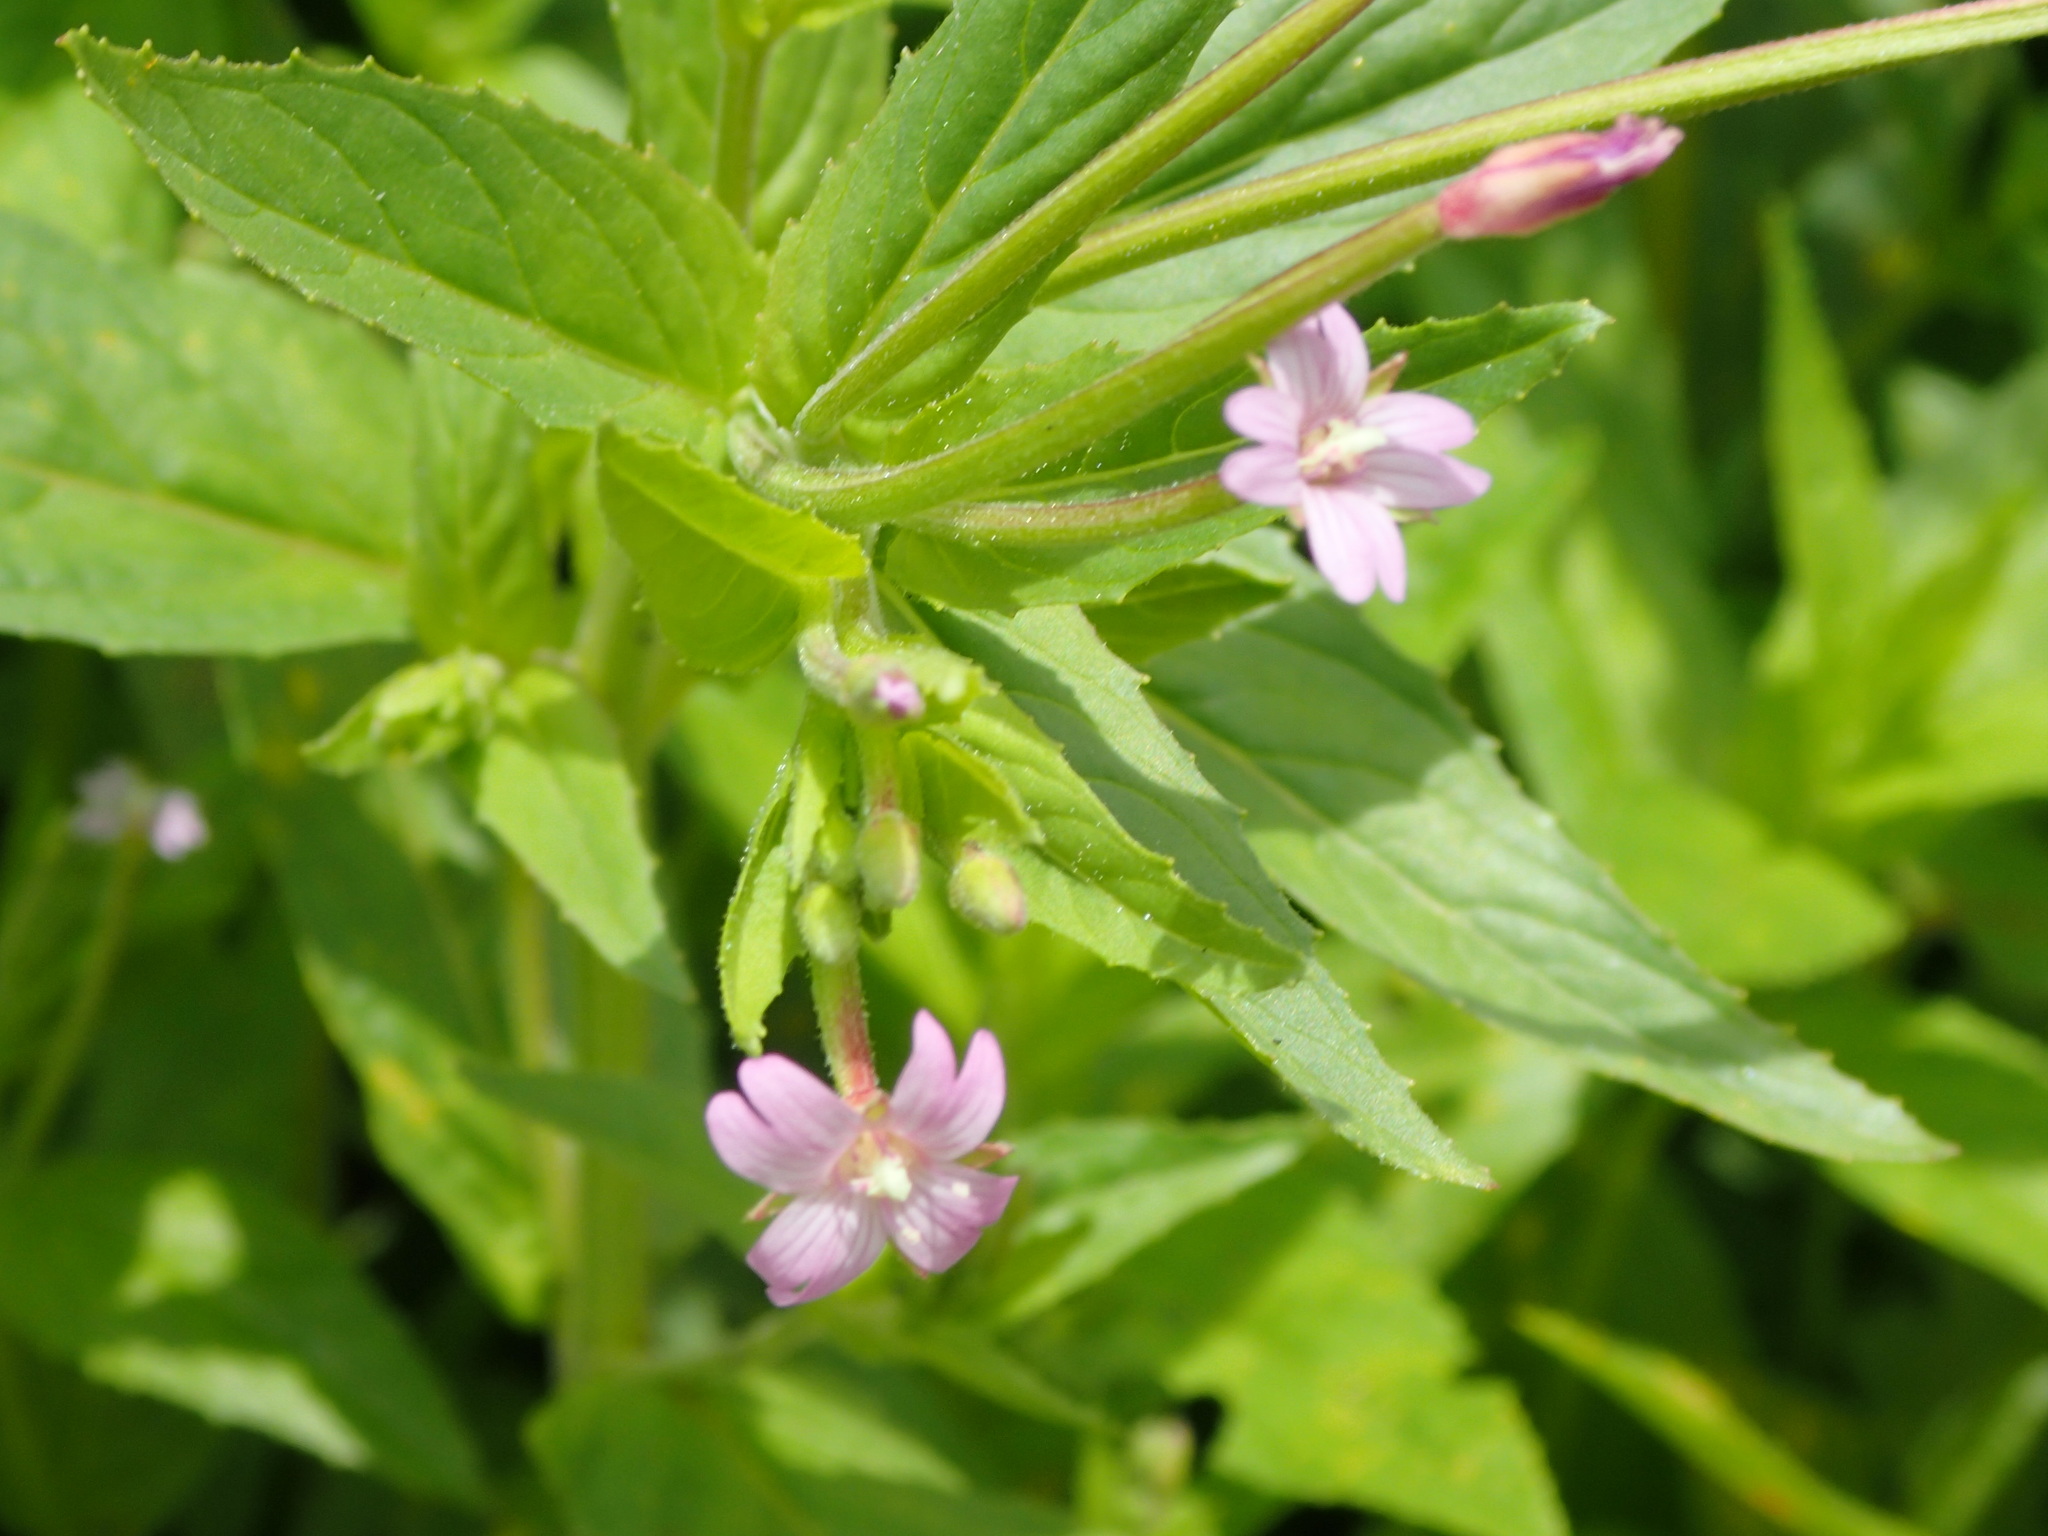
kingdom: Plantae
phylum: Tracheophyta
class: Magnoliopsida
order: Myrtales
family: Onagraceae
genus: Epilobium
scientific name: Epilobium ciliatum
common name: American willowherb
